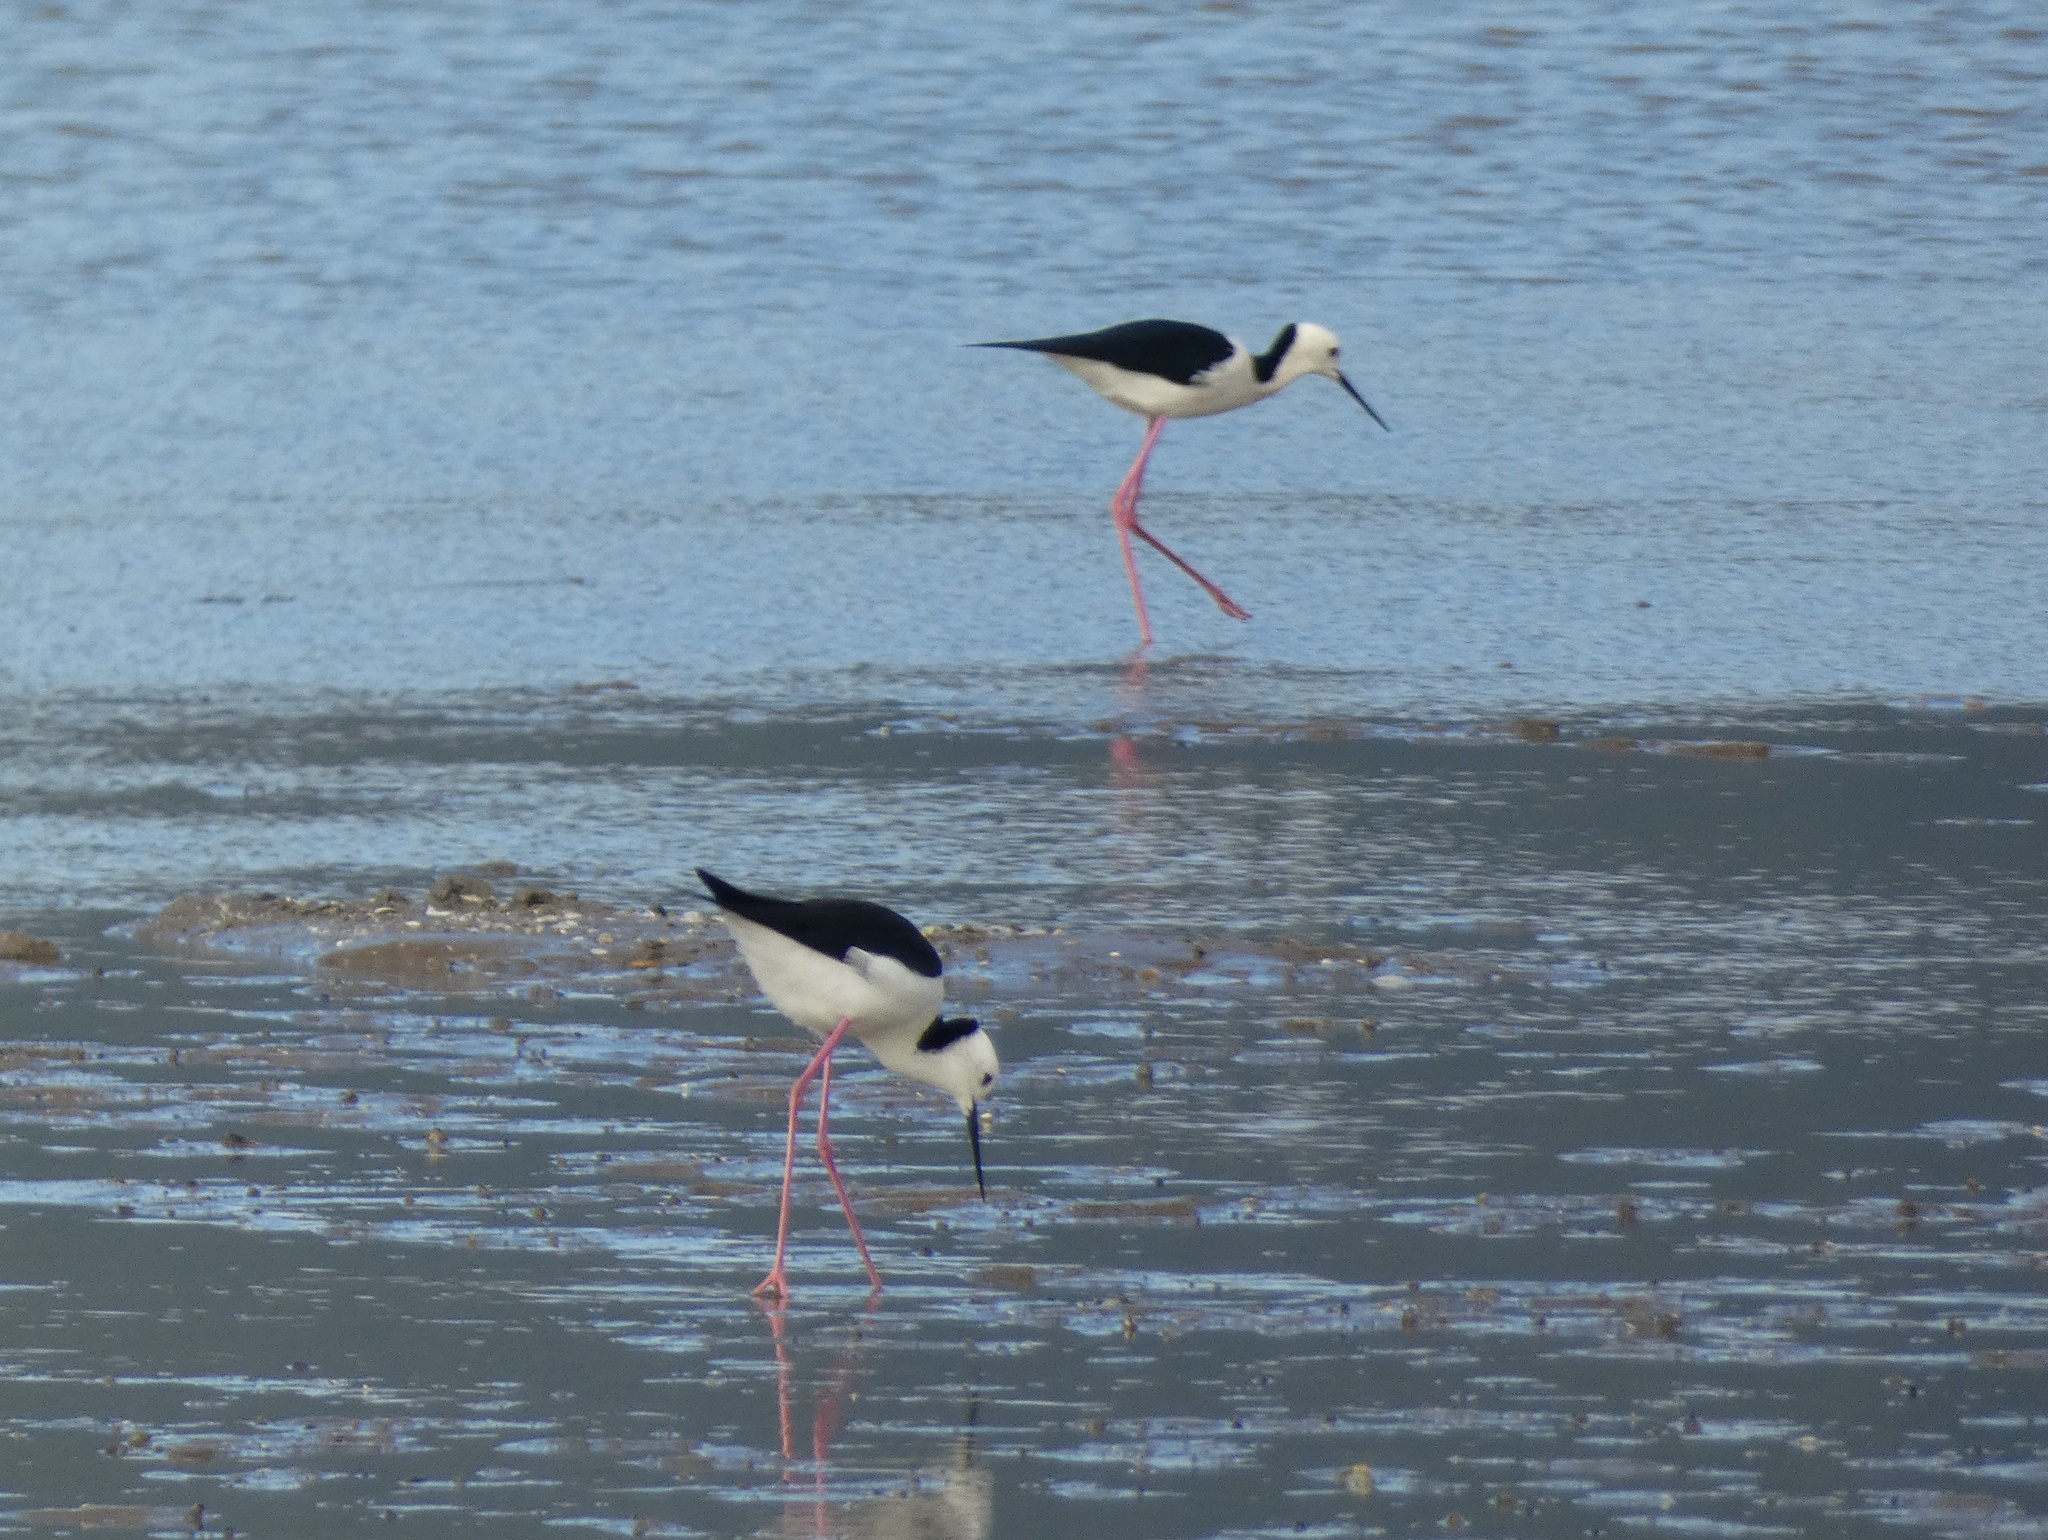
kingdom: Animalia
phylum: Chordata
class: Aves
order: Charadriiformes
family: Recurvirostridae
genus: Himantopus
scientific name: Himantopus leucocephalus
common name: White-headed stilt
